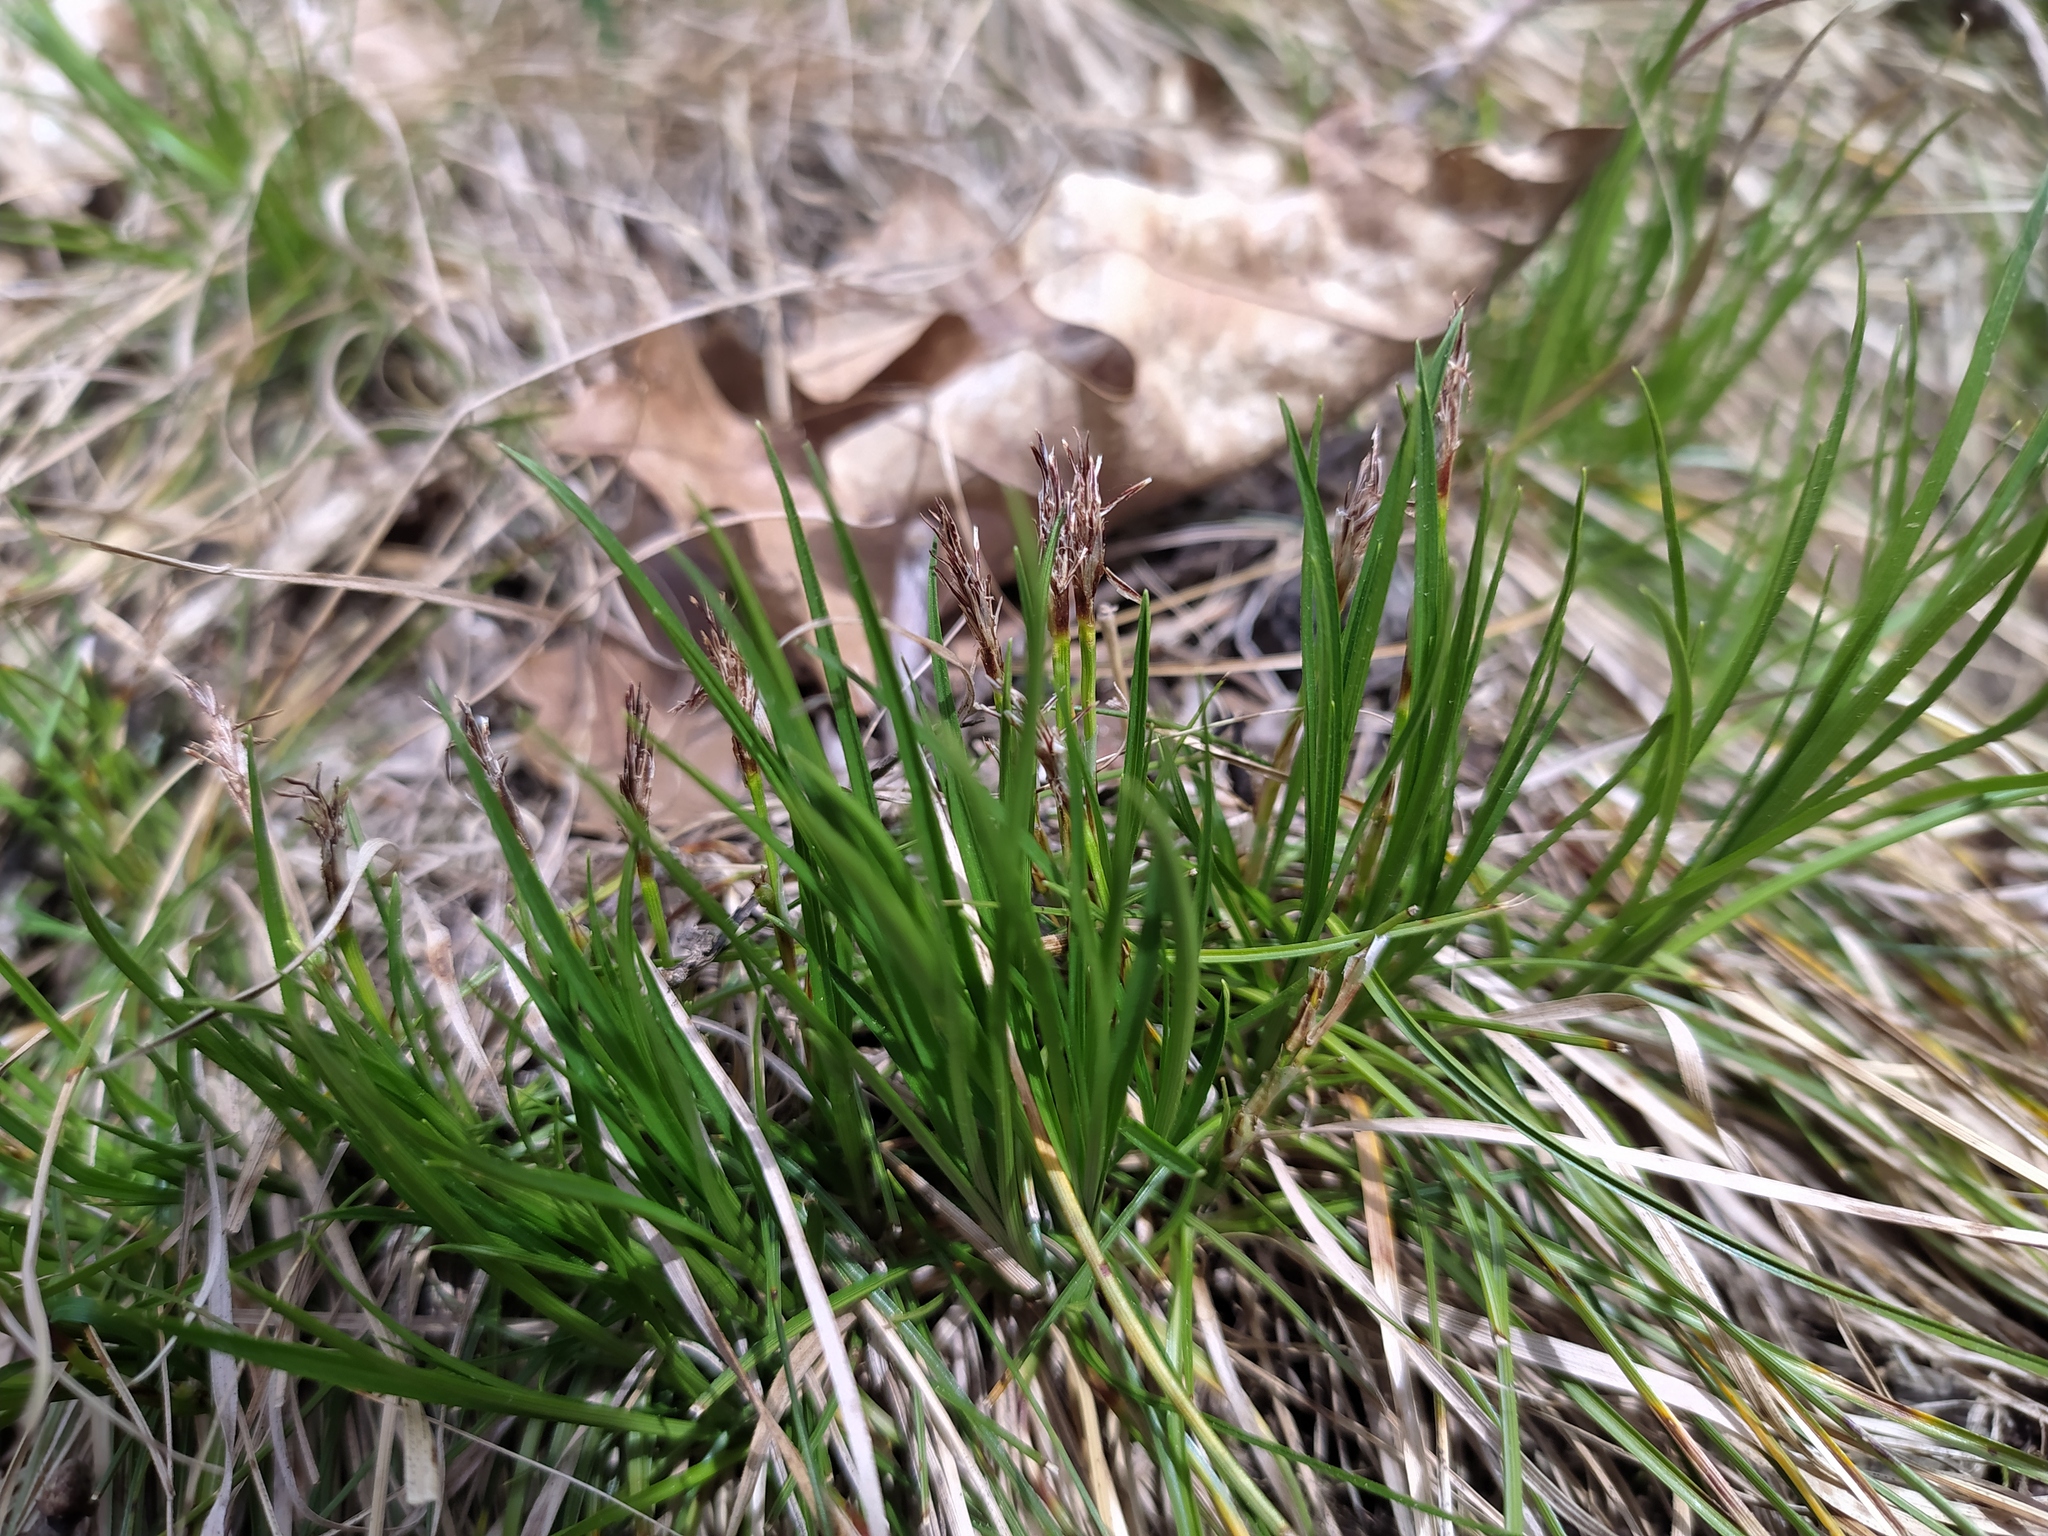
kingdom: Plantae
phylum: Tracheophyta
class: Liliopsida
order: Poales
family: Cyperaceae
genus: Carex
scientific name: Carex humilis
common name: Dwarf sedge
